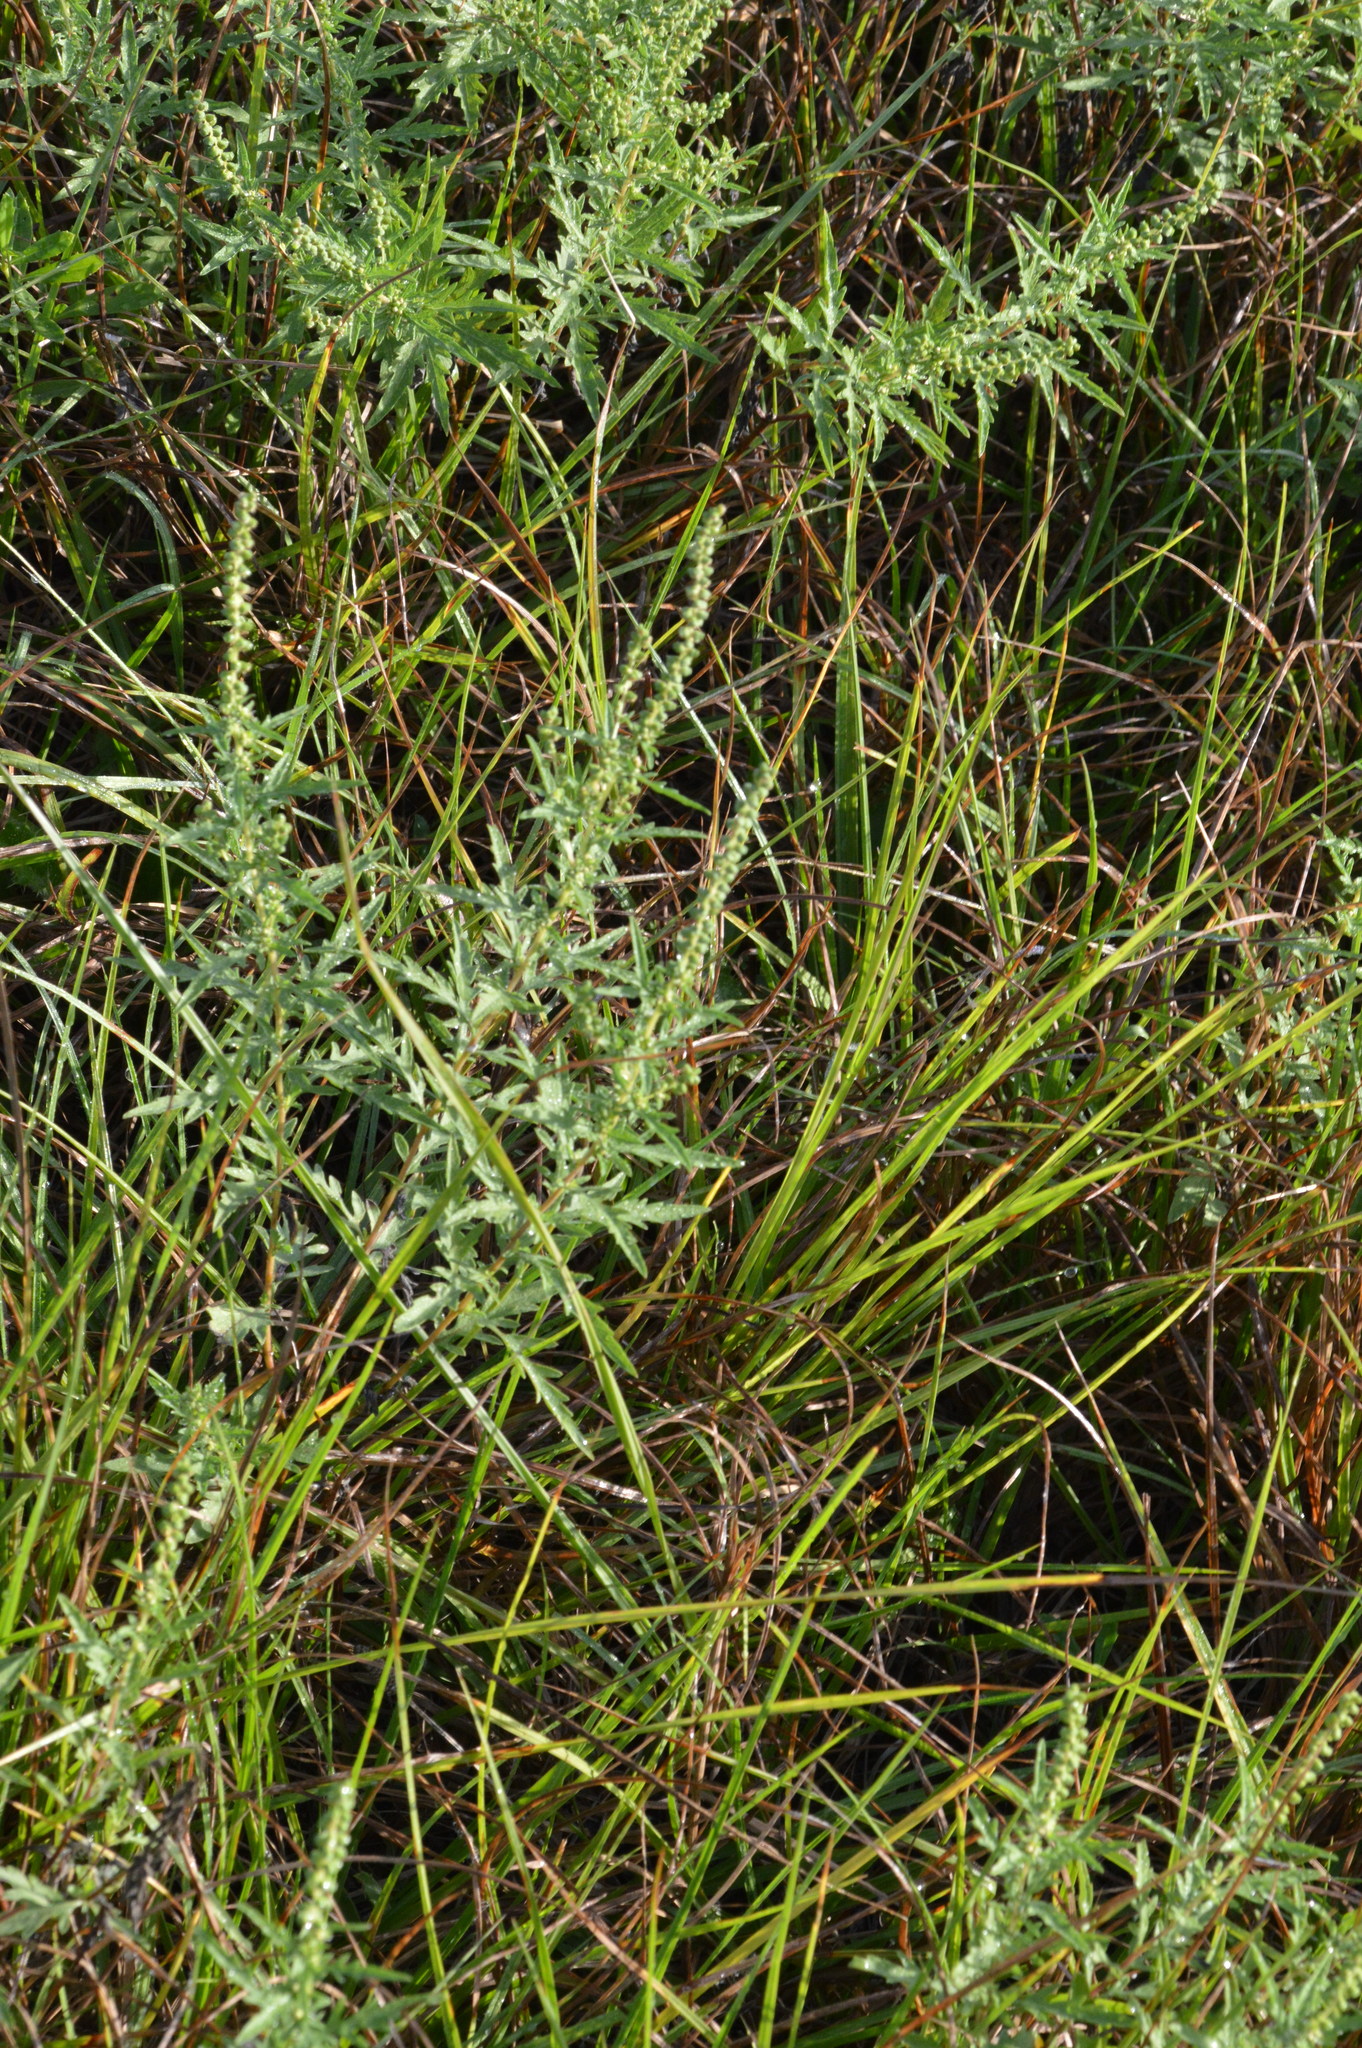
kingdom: Plantae
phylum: Tracheophyta
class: Magnoliopsida
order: Asterales
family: Asteraceae
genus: Ambrosia
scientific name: Ambrosia psilostachya
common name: Perennial ragweed
